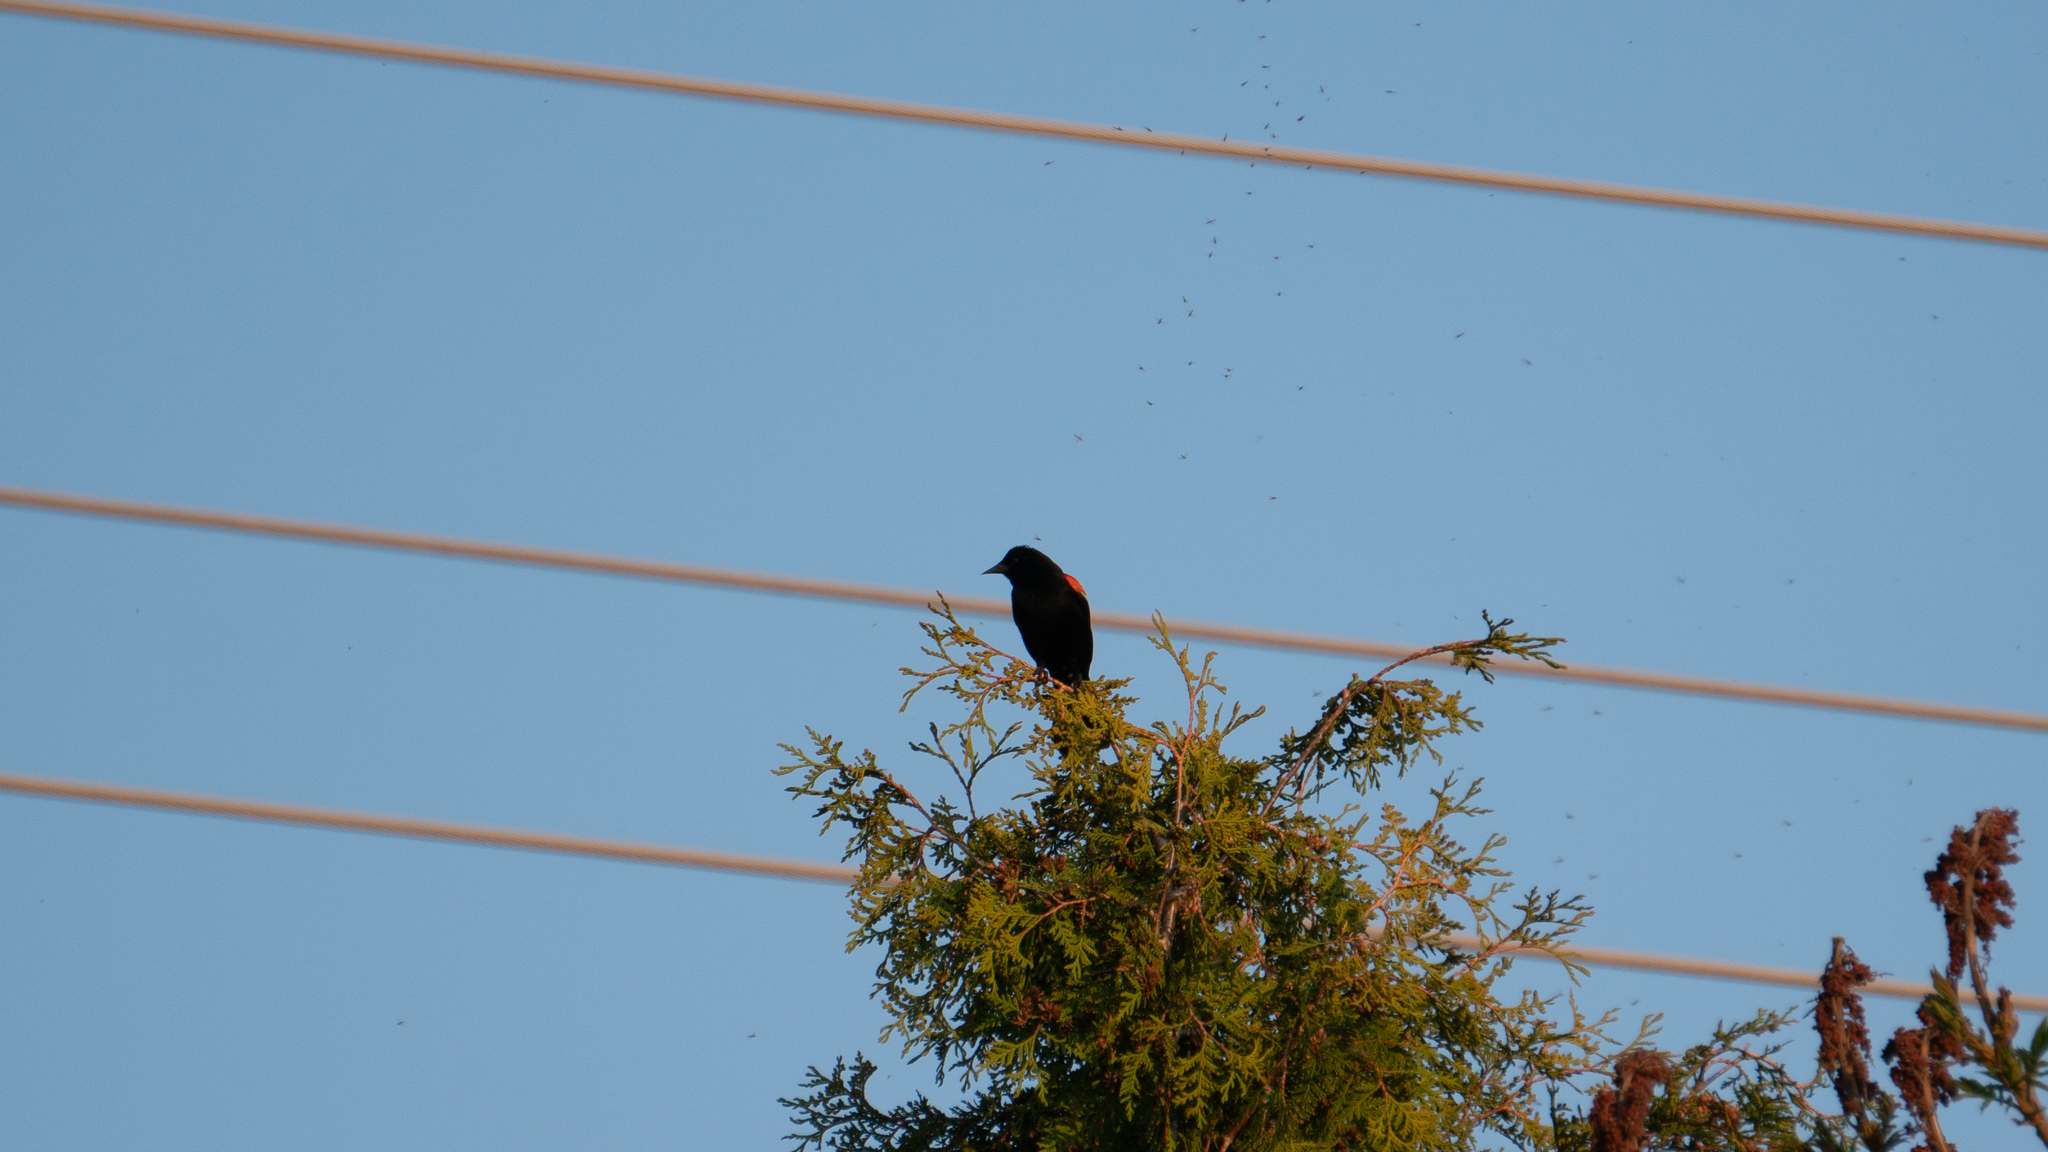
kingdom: Animalia
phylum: Chordata
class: Aves
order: Passeriformes
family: Icteridae
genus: Agelaius
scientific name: Agelaius phoeniceus
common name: Red-winged blackbird
